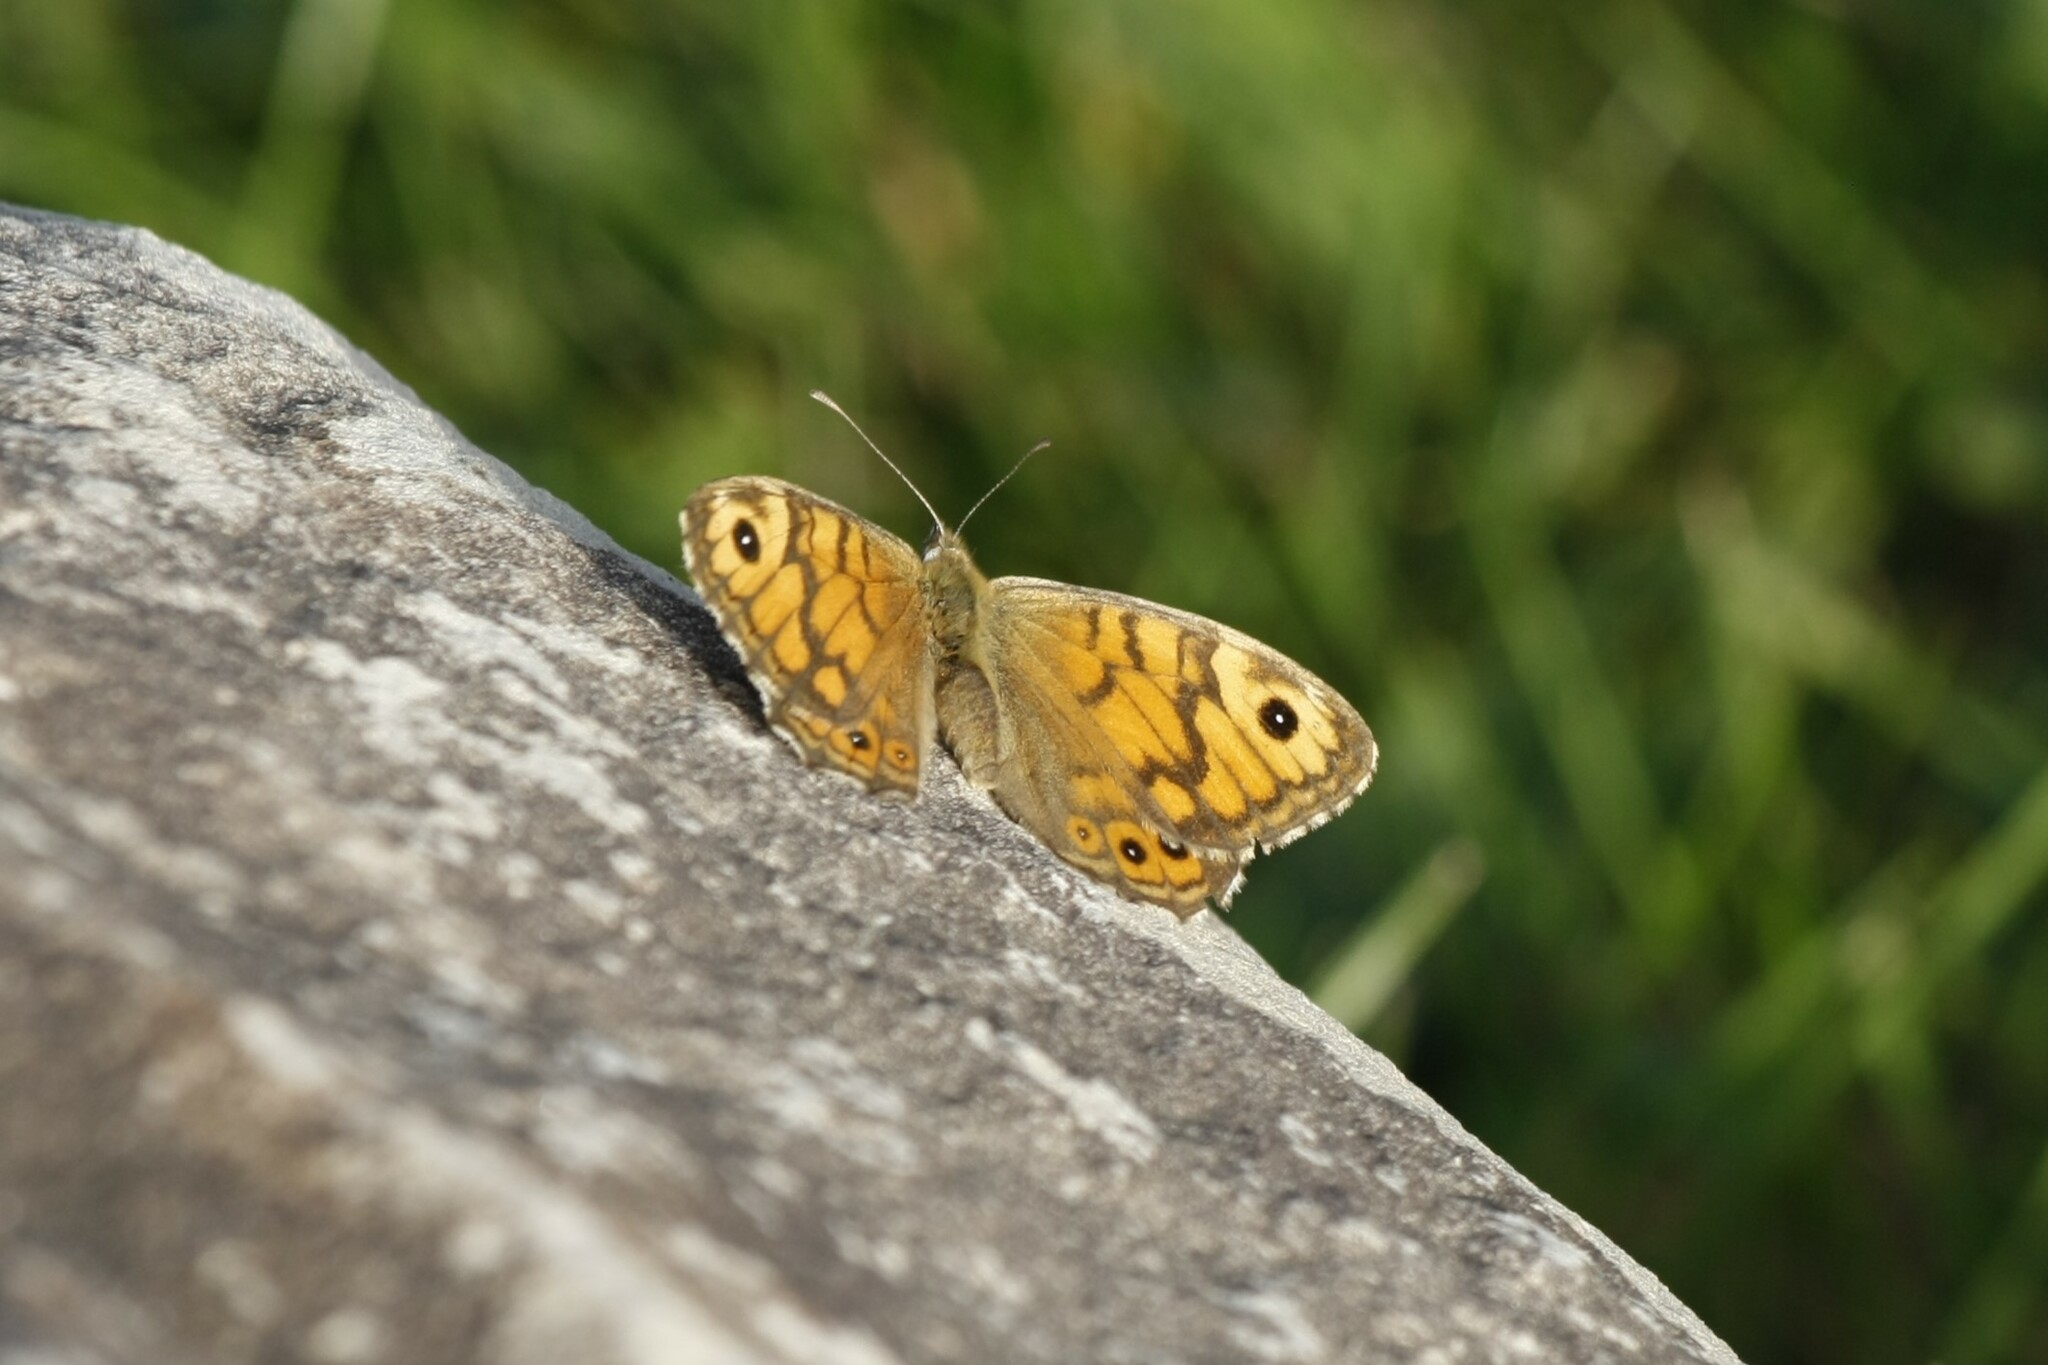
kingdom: Animalia
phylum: Arthropoda
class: Insecta
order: Lepidoptera
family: Nymphalidae
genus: Pararge
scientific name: Pararge Lasiommata megera
